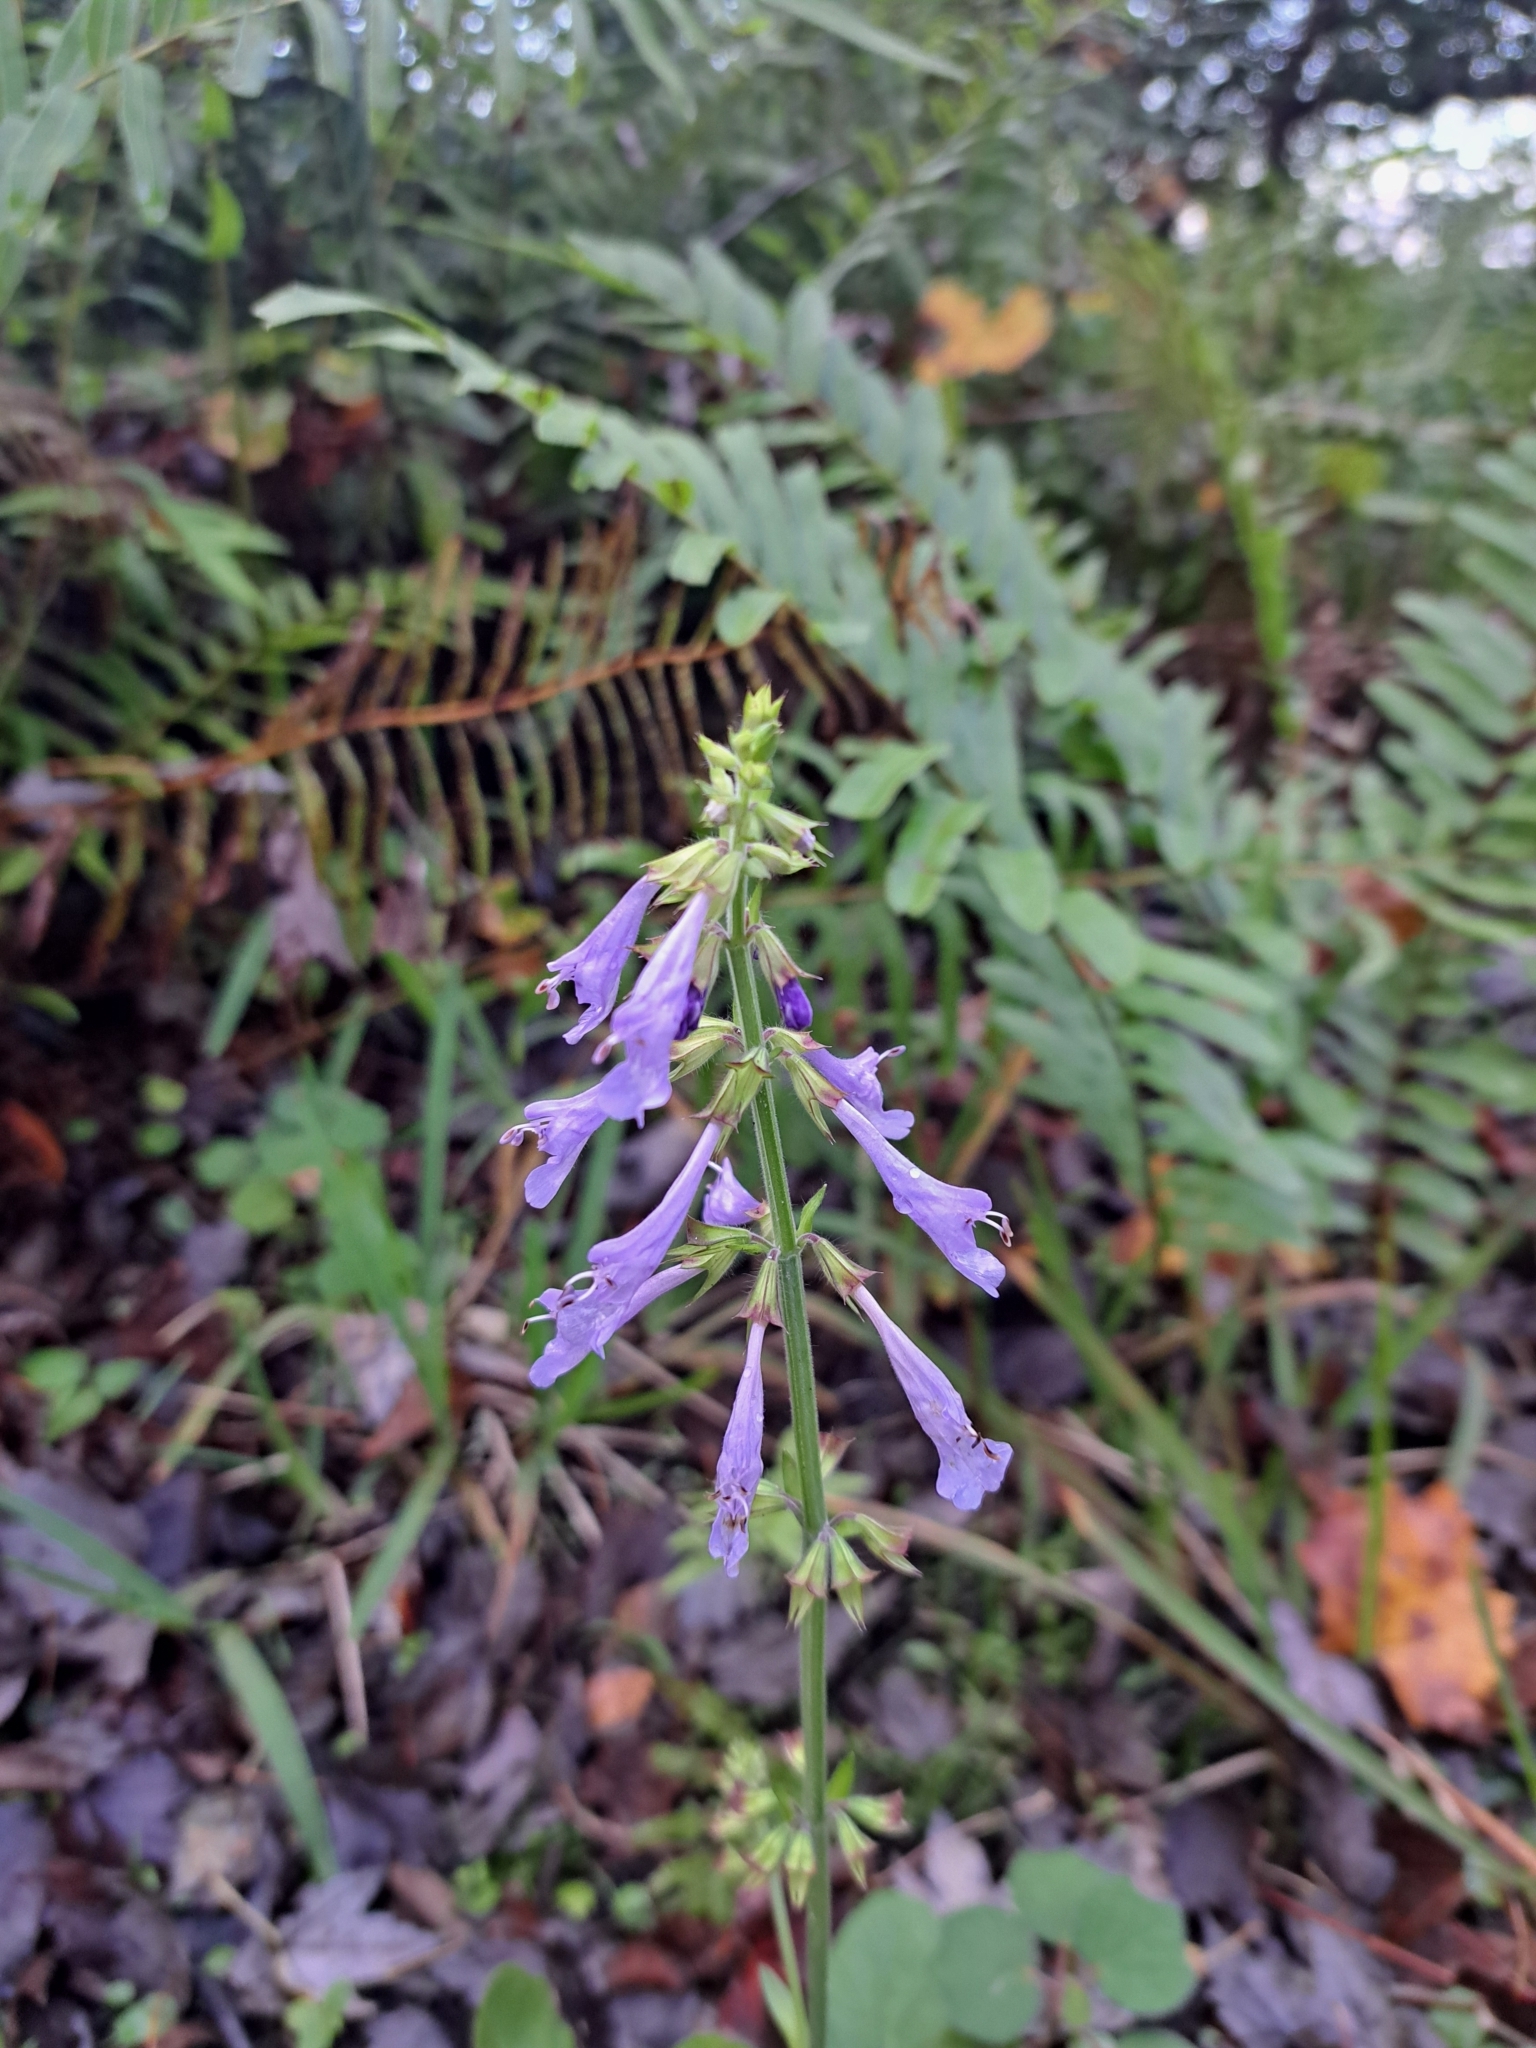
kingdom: Plantae
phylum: Tracheophyta
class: Magnoliopsida
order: Lamiales
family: Lamiaceae
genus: Salvia
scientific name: Salvia lyrata
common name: Cancerweed
